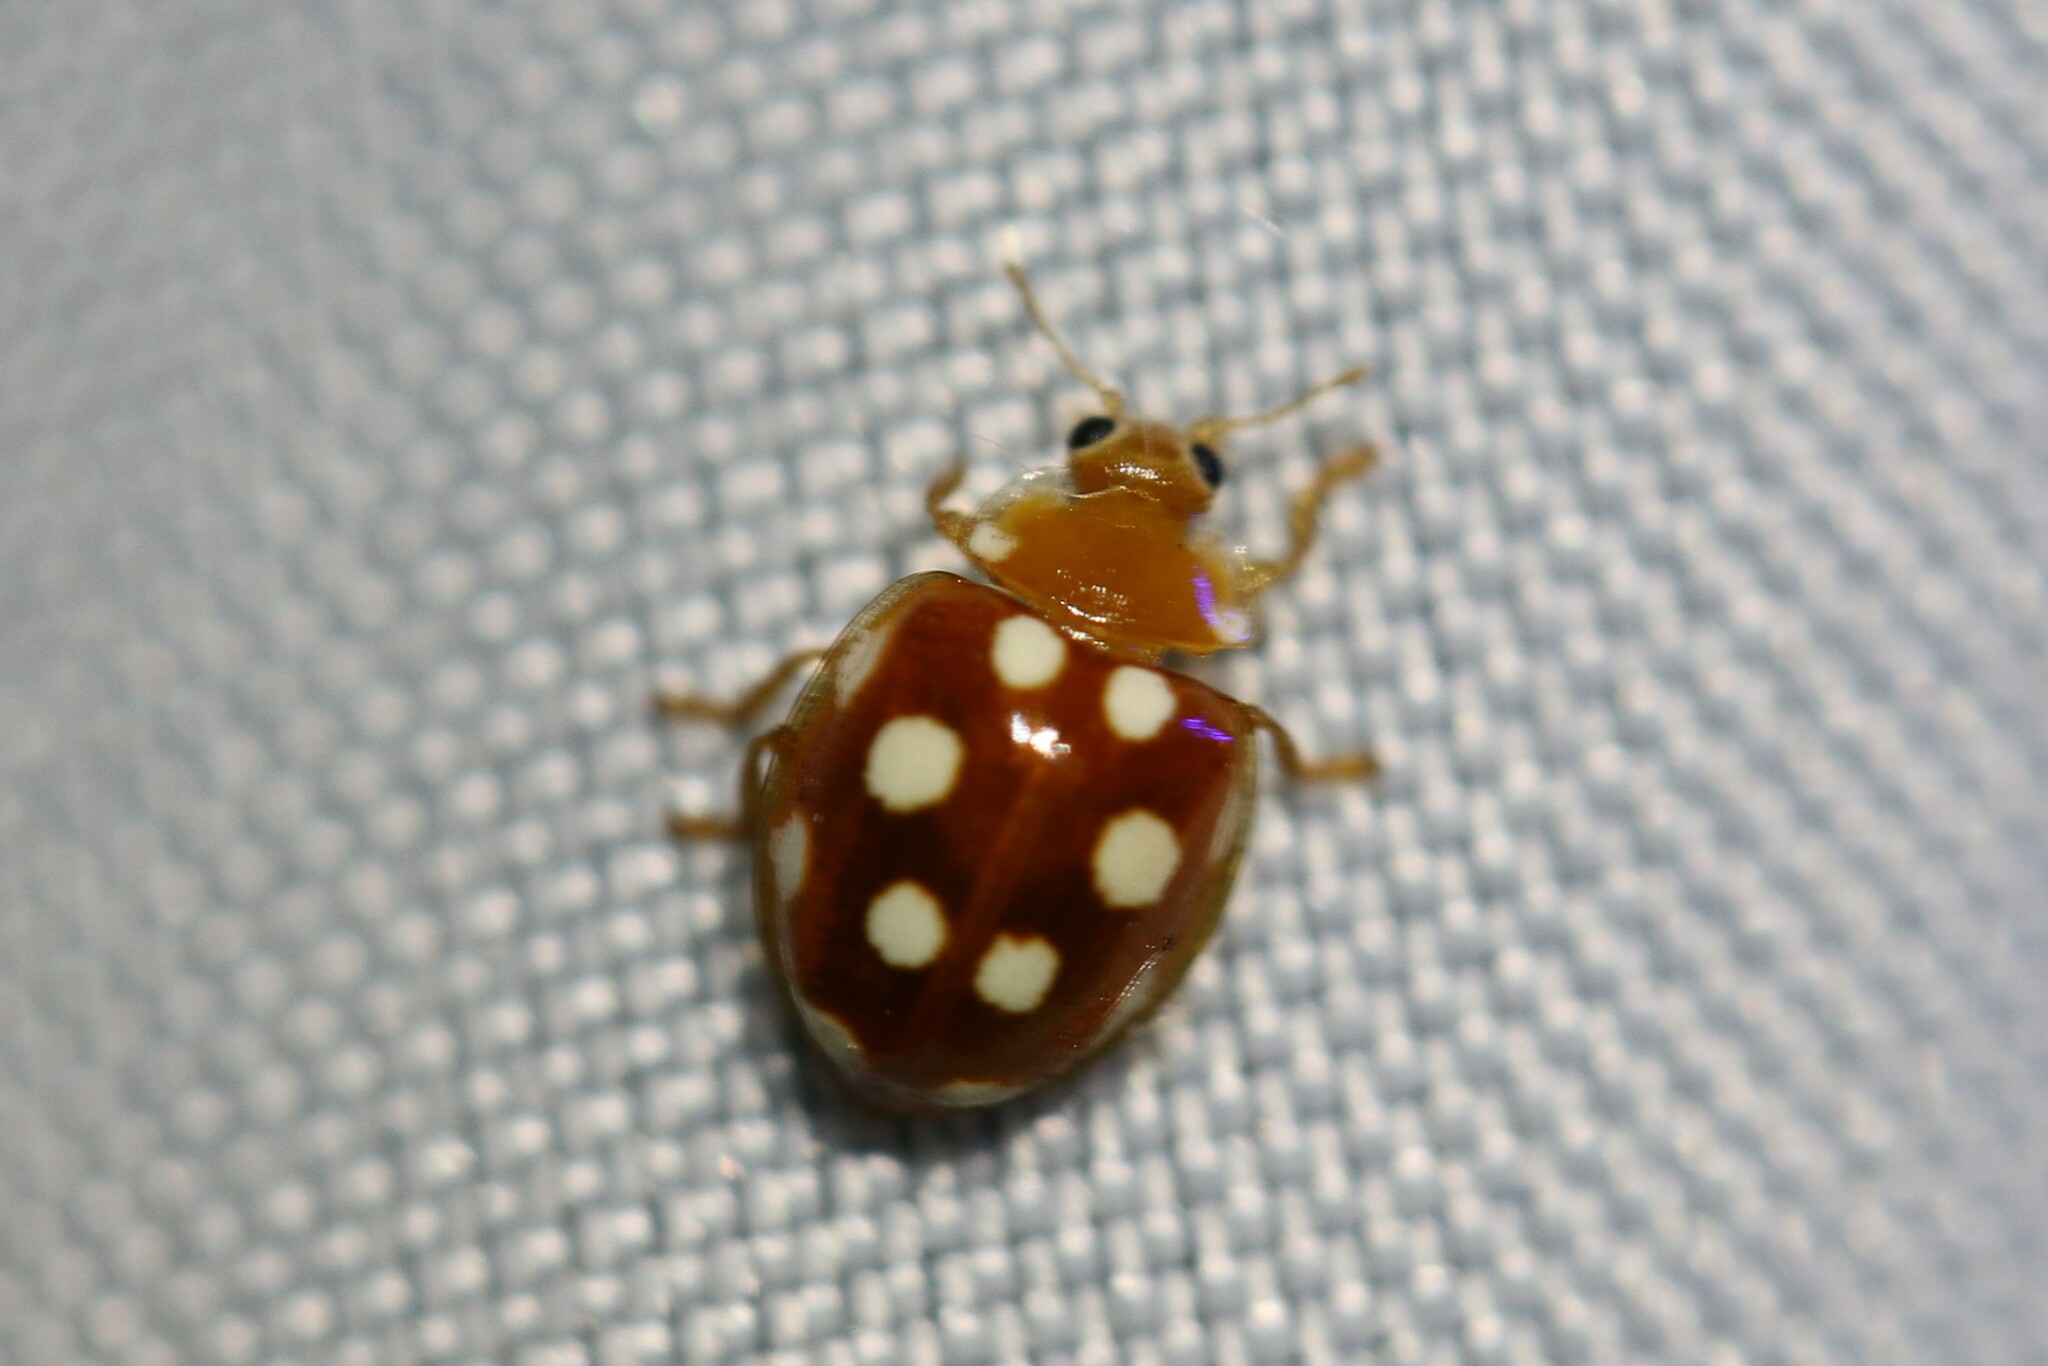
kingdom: Animalia
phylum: Arthropoda
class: Insecta
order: Coleoptera
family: Coccinellidae
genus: Vibidia
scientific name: Vibidia duodecimguttata
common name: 12-spot ladybird
